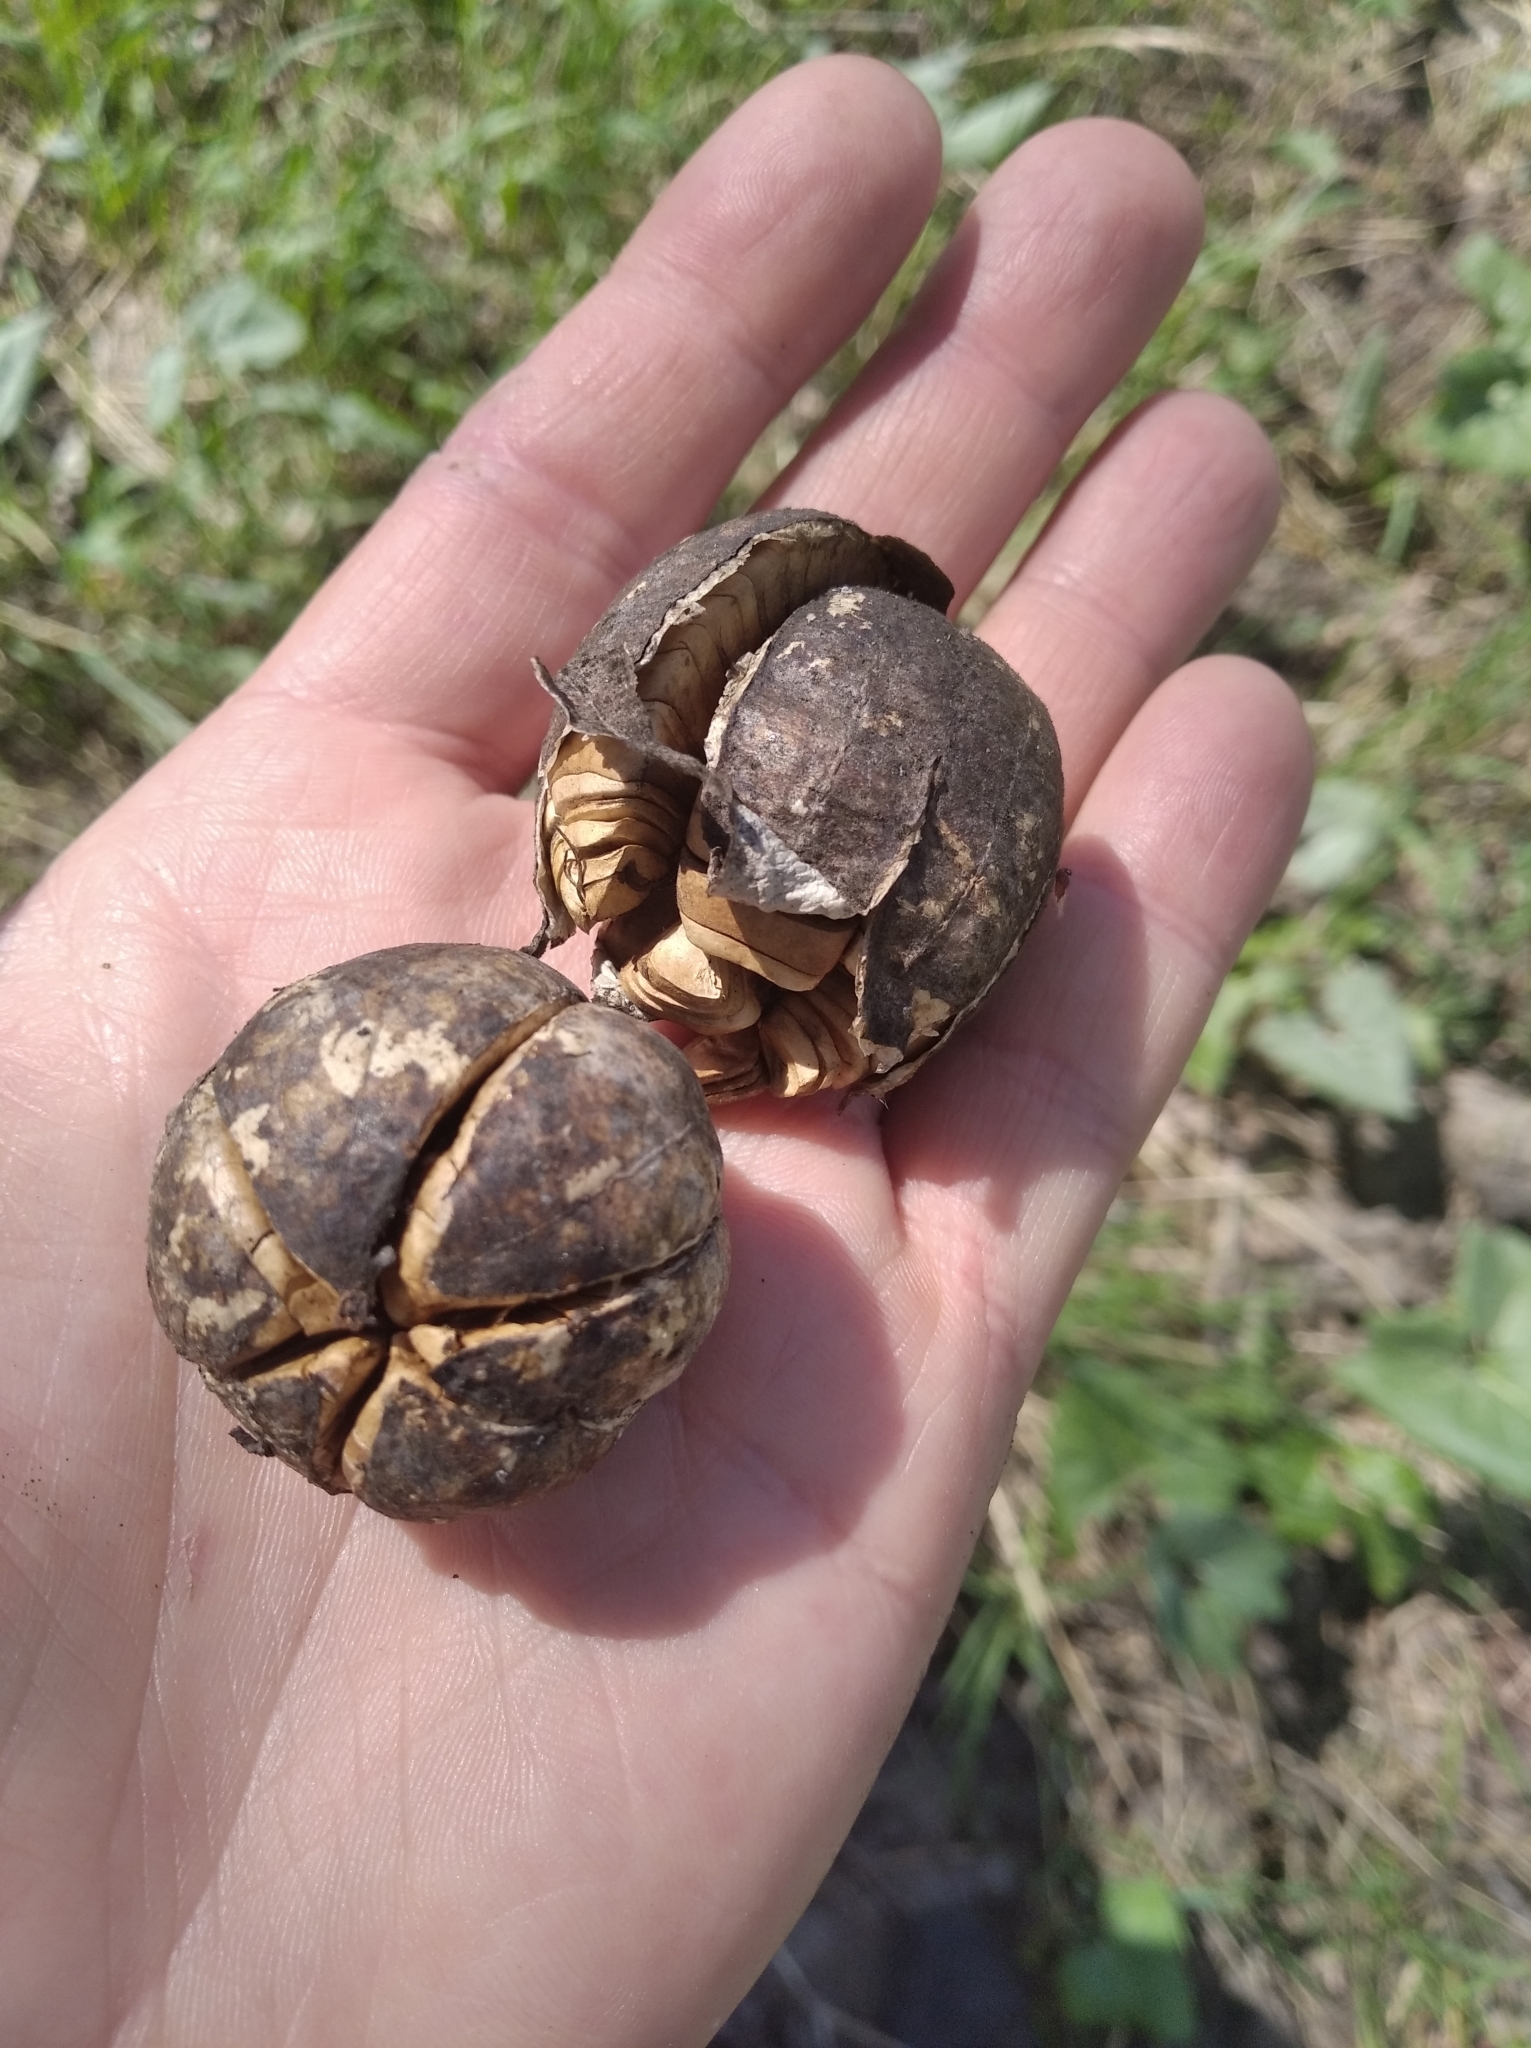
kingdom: Plantae
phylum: Tracheophyta
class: Magnoliopsida
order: Piperales
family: Aristolochiaceae
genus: Aristolochia
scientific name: Aristolochia clematitis
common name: Birthwort
